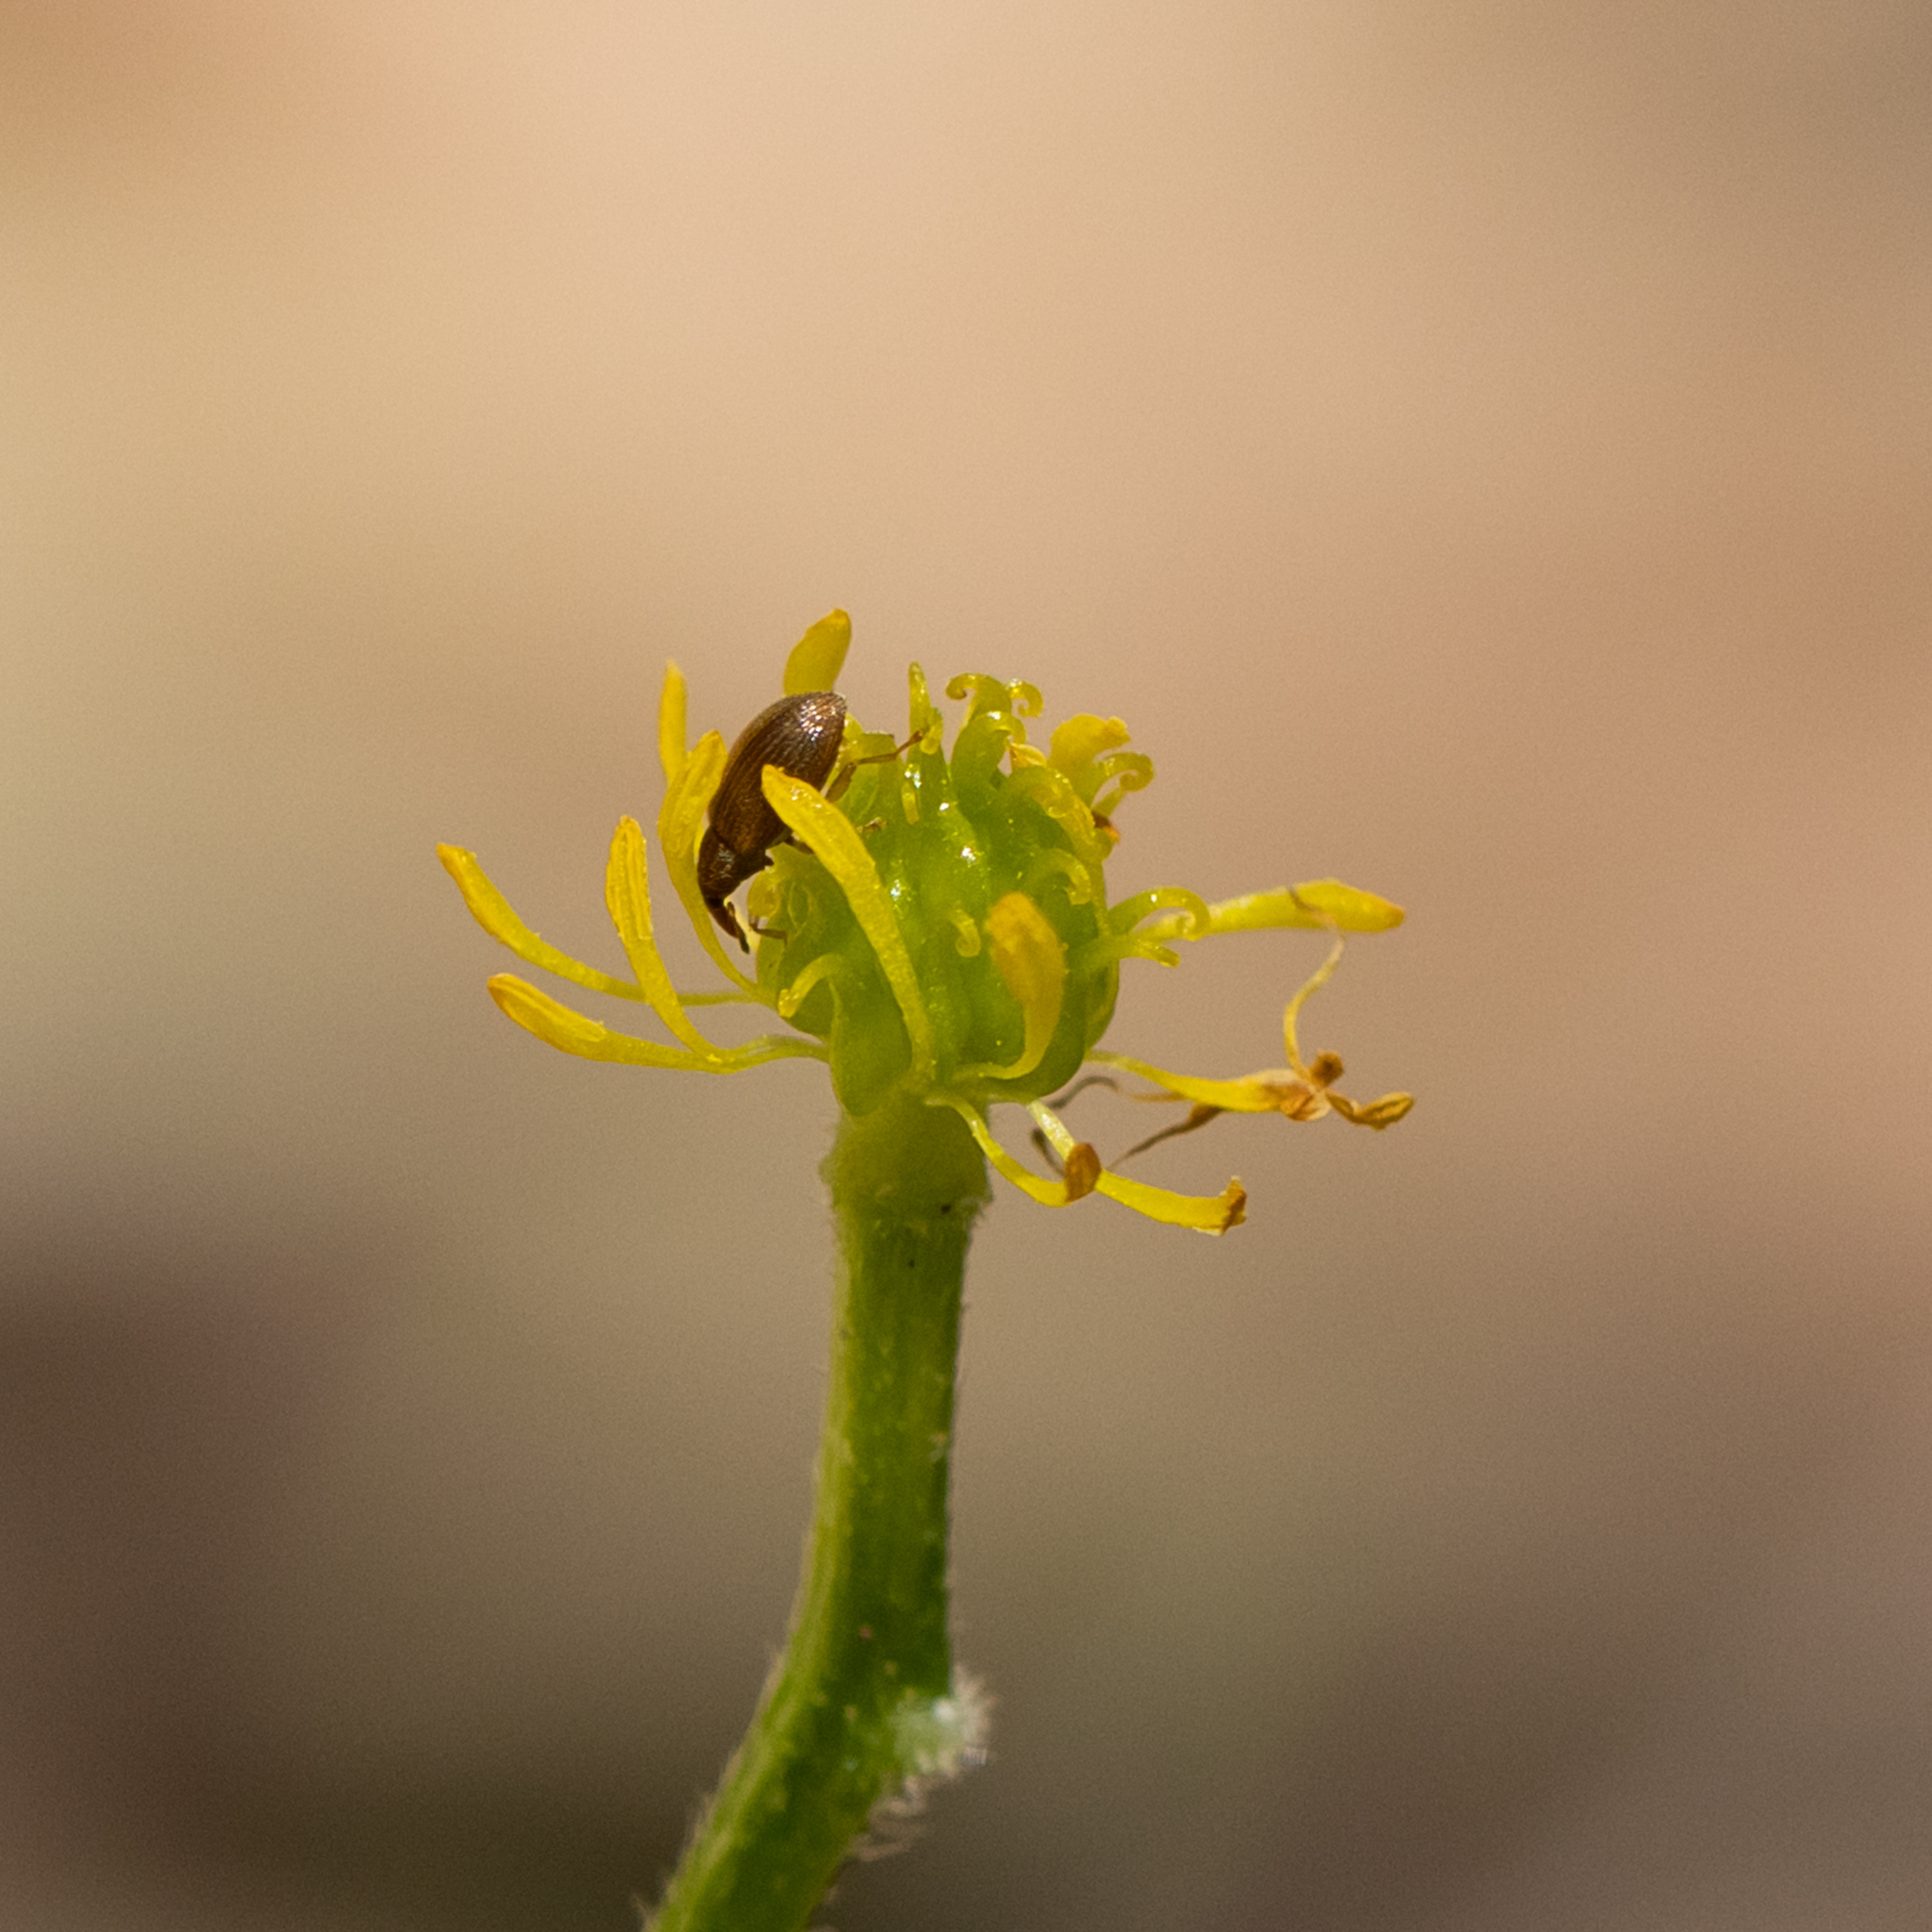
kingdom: Plantae
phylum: Tracheophyta
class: Magnoliopsida
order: Ranunculales
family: Ranunculaceae
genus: Ranunculus
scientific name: Ranunculus colonorum
